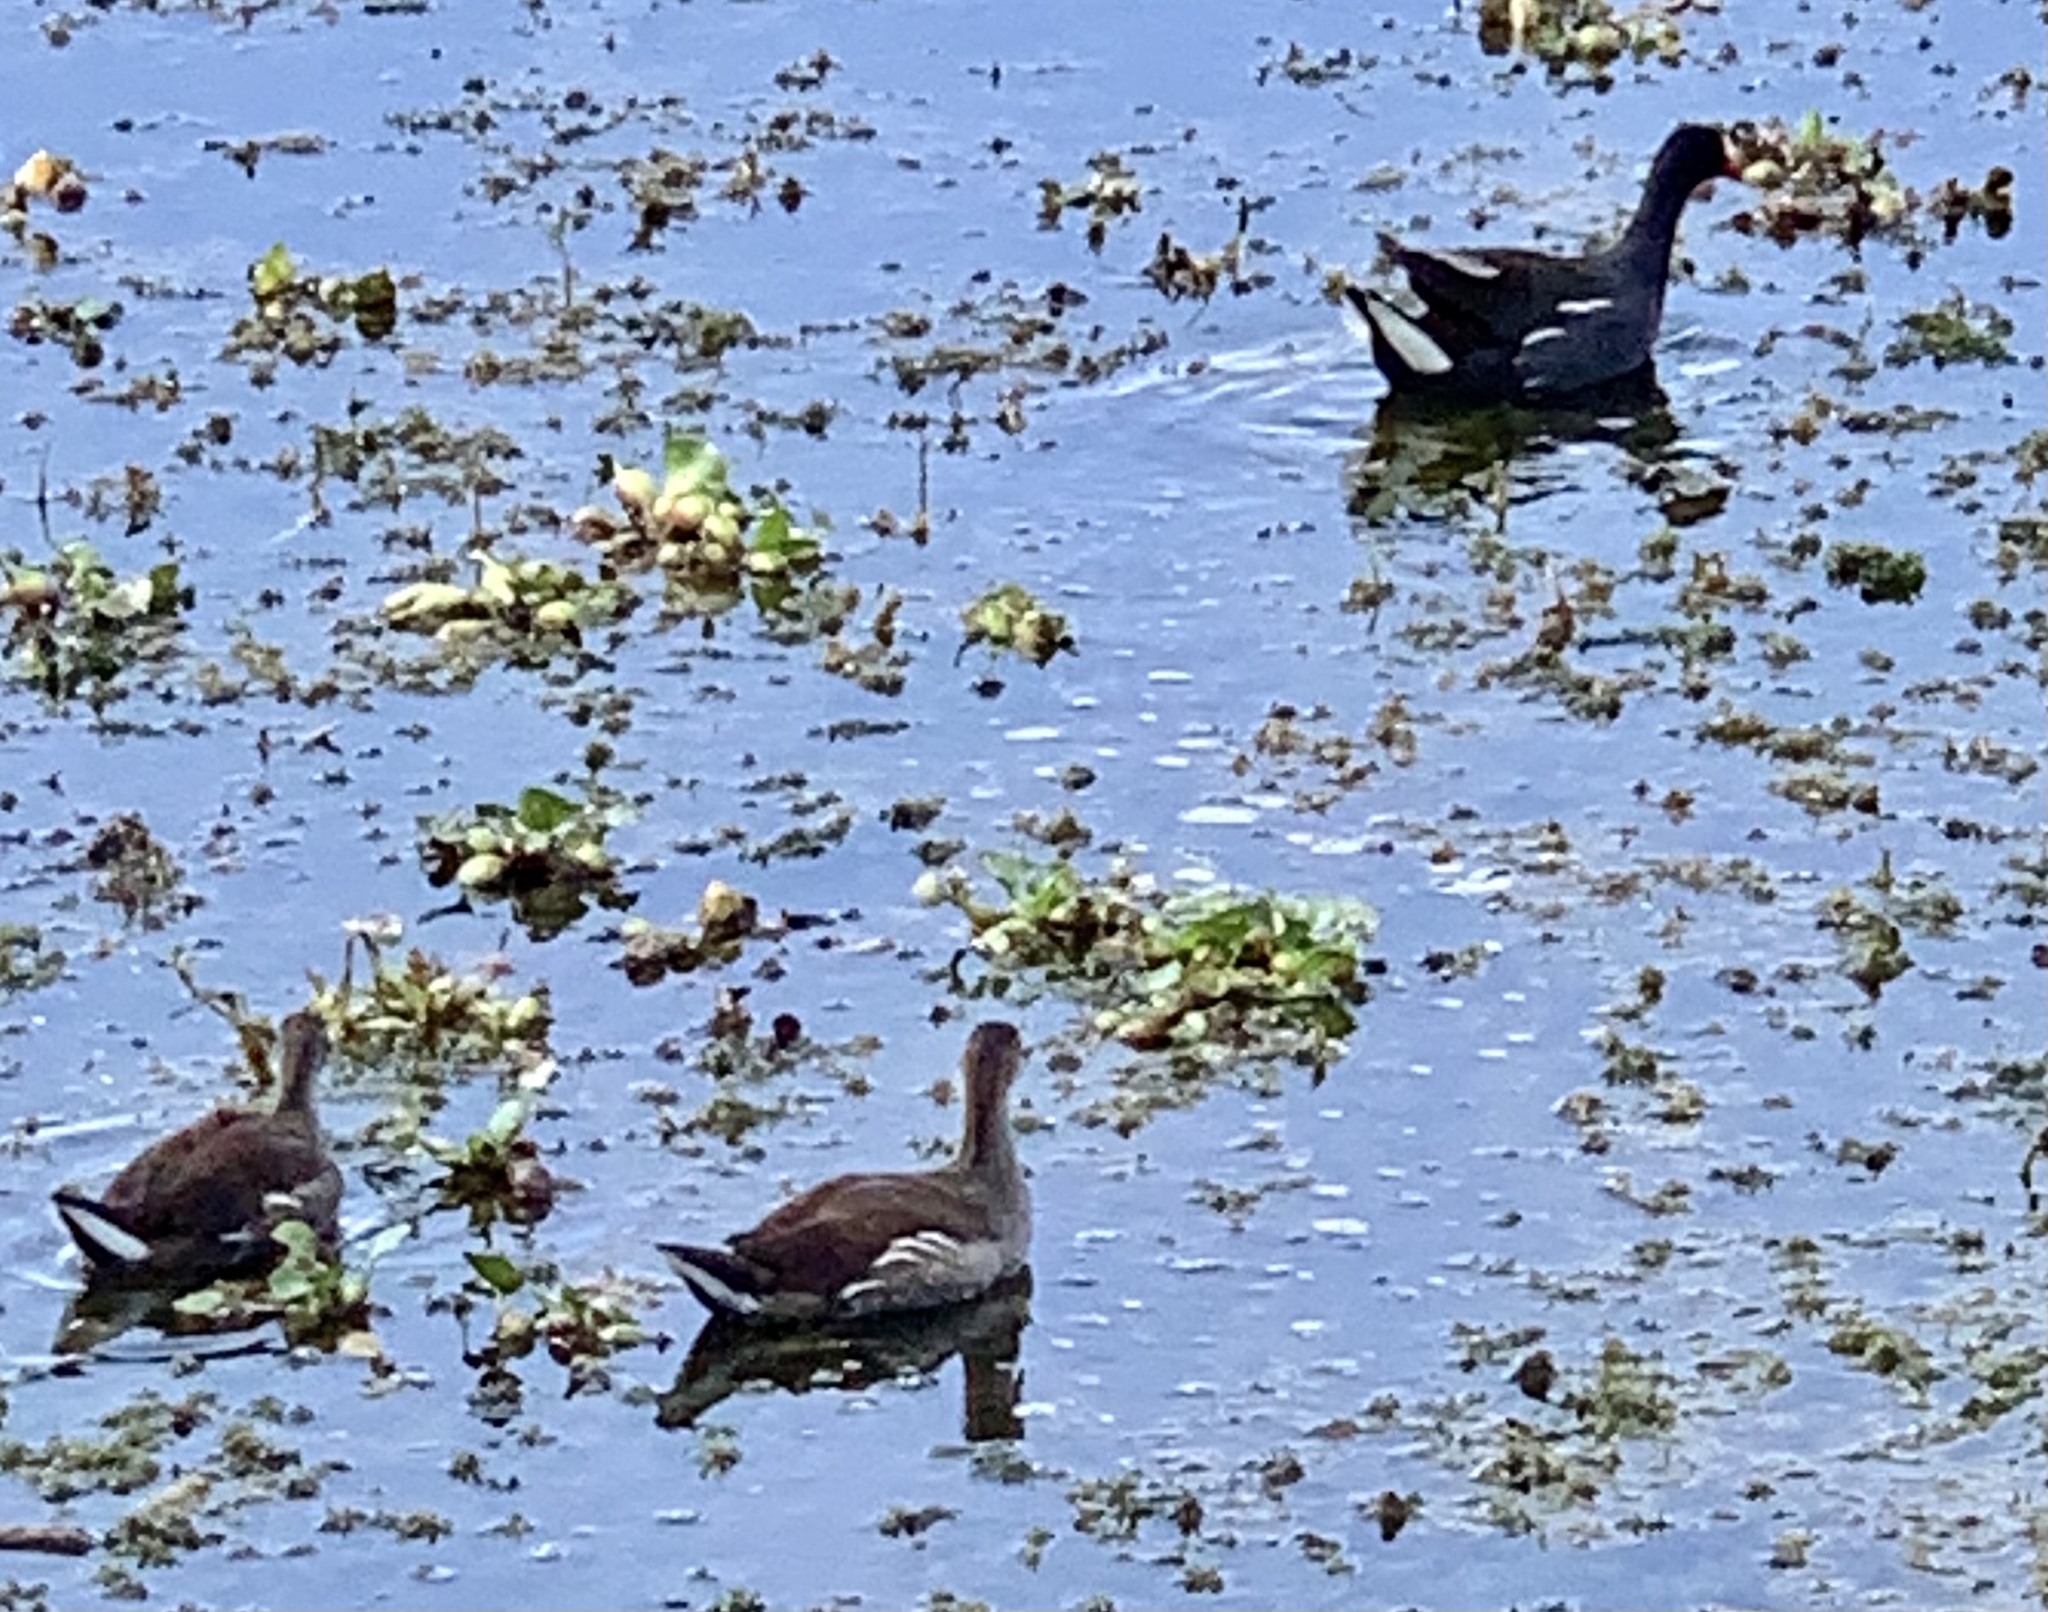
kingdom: Animalia
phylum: Chordata
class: Aves
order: Gruiformes
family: Rallidae
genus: Gallinula
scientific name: Gallinula chloropus
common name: Common moorhen
